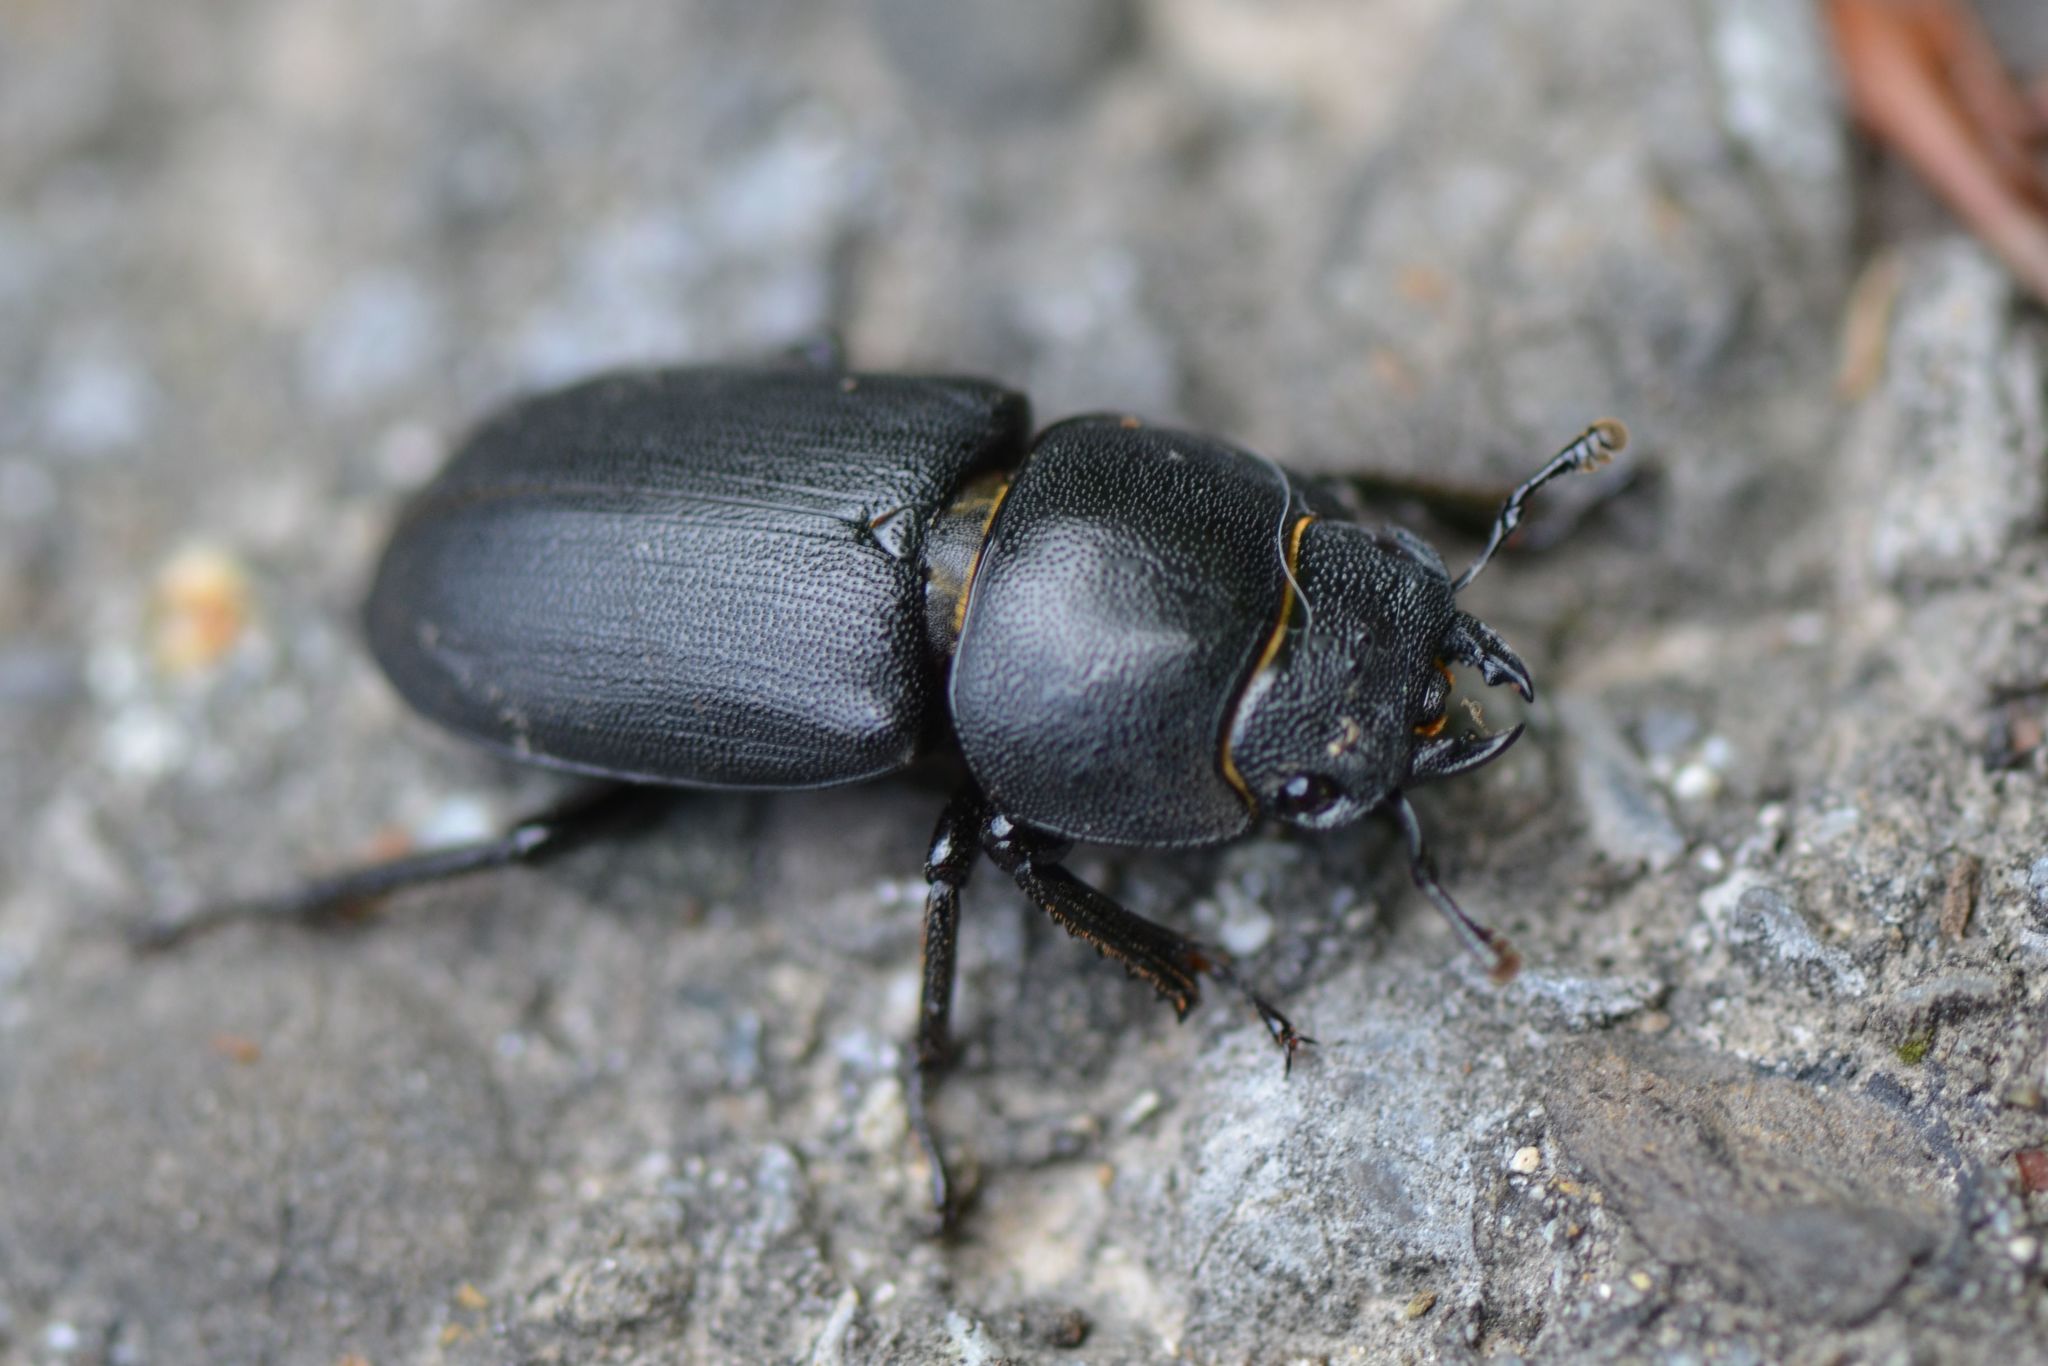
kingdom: Animalia
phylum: Arthropoda
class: Insecta
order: Coleoptera
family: Lucanidae
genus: Dorcus
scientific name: Dorcus parallelipipedus
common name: Lesser stag beetle
